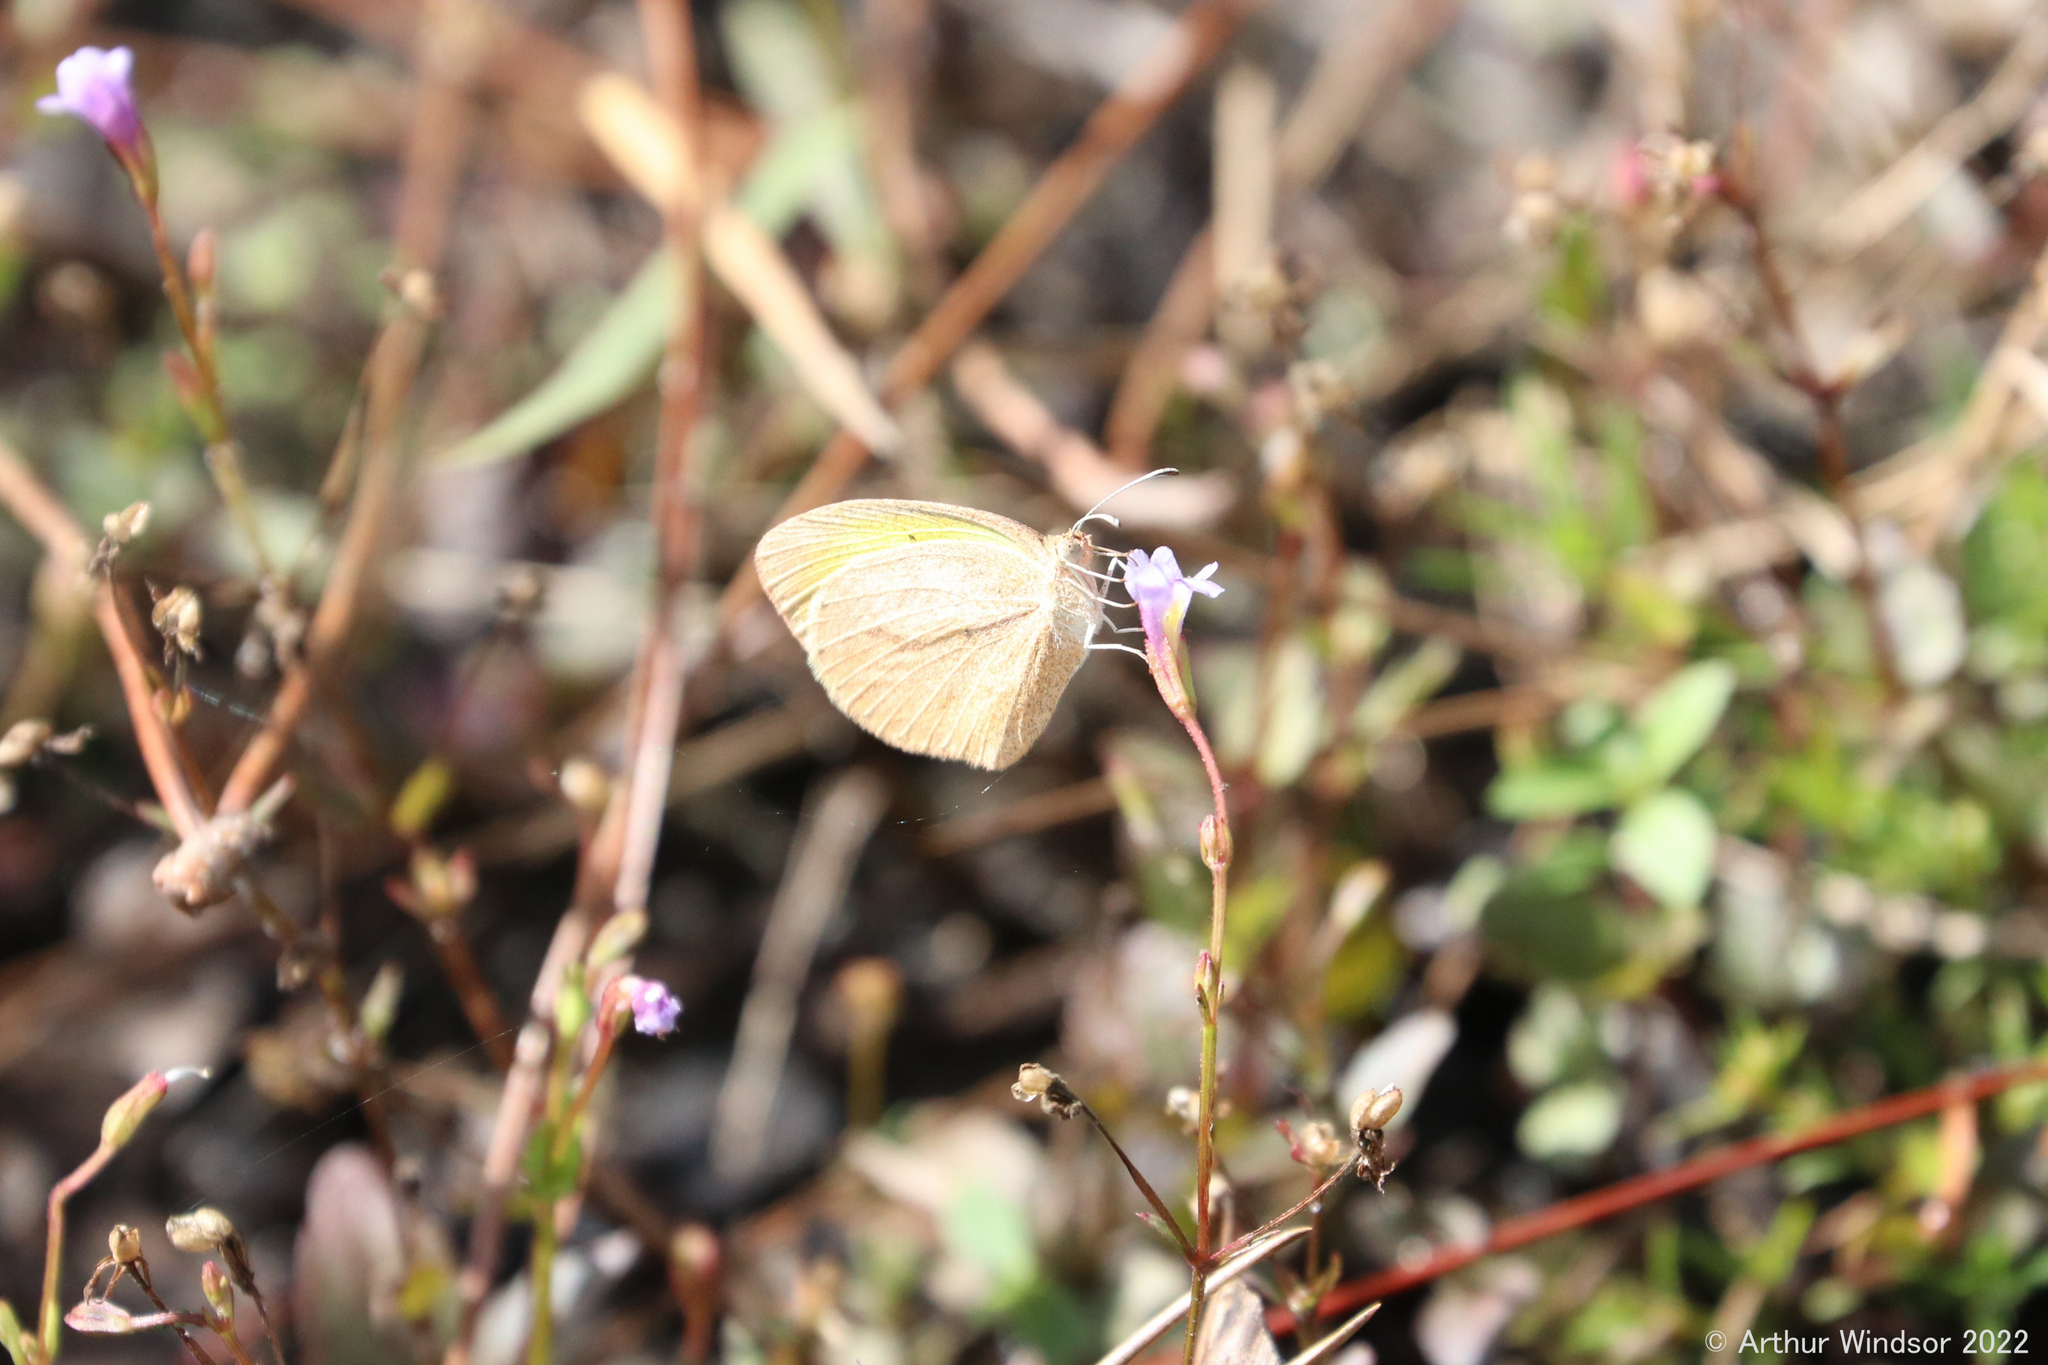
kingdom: Animalia
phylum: Arthropoda
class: Insecta
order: Lepidoptera
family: Pieridae
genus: Eurema
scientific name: Eurema daira
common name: Barred sulphur
